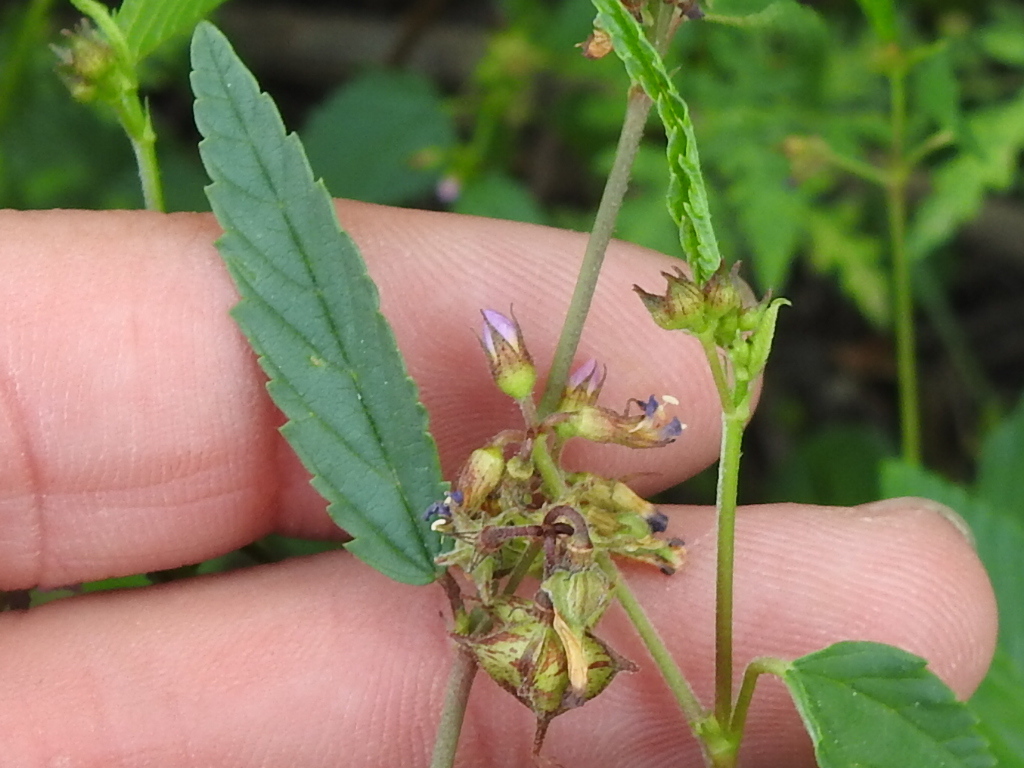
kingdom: Plantae
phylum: Tracheophyta
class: Magnoliopsida
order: Malvales
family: Malvaceae
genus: Melochia
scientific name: Melochia pyramidata
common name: Pyramidflower
